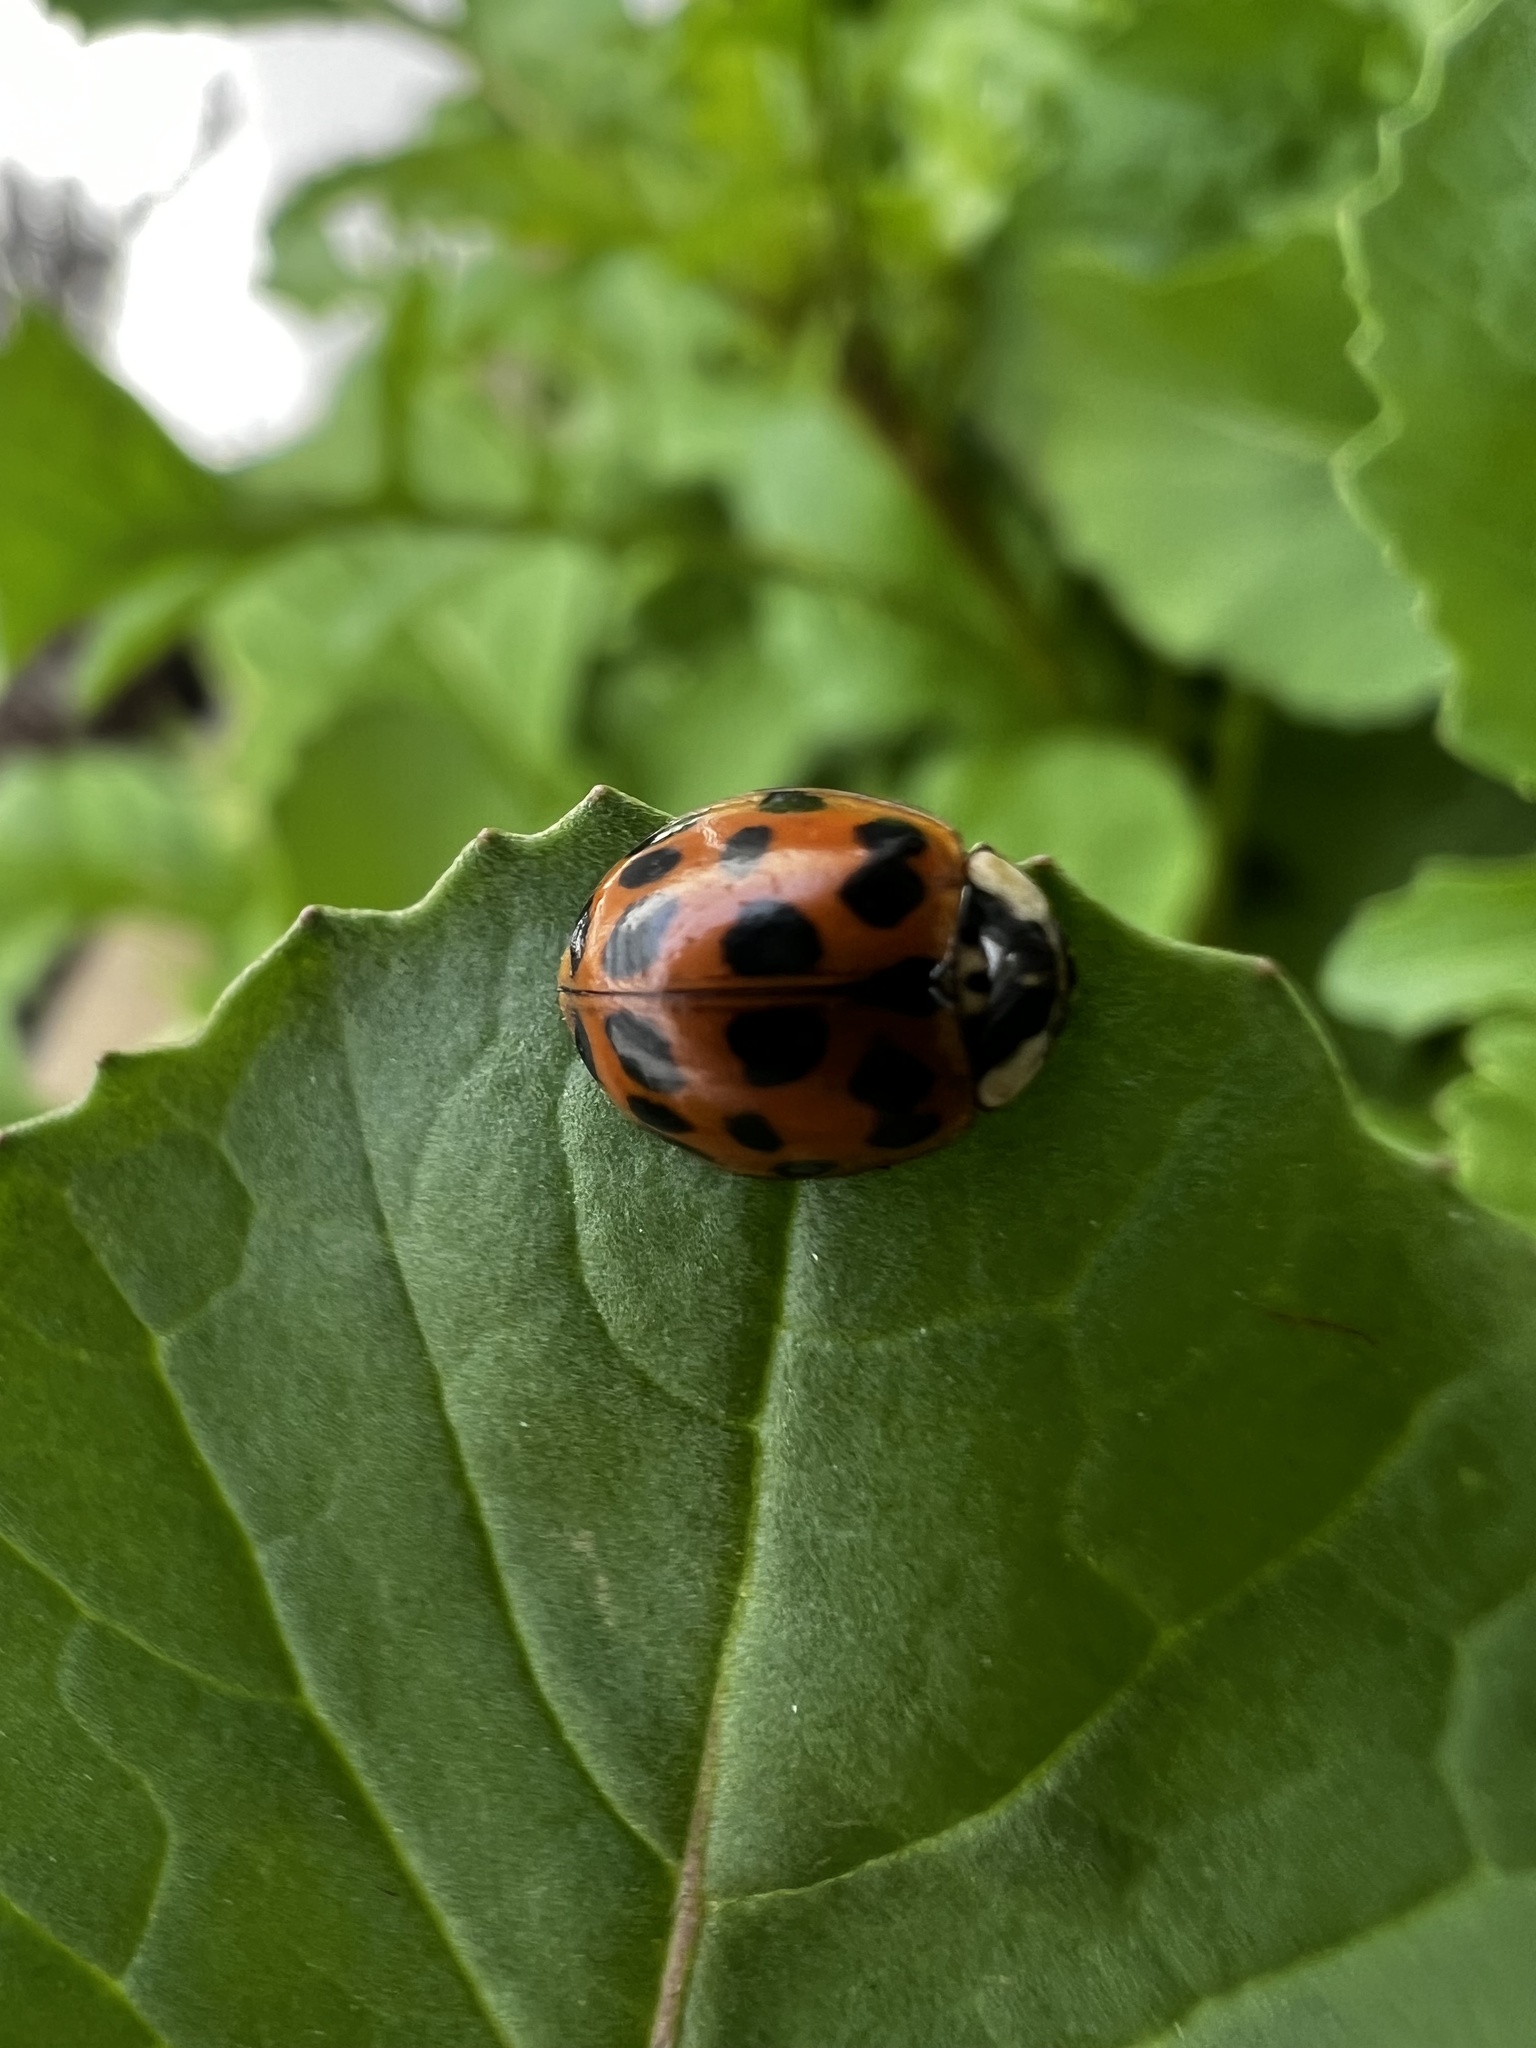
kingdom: Animalia
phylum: Arthropoda
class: Insecta
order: Coleoptera
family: Coccinellidae
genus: Harmonia
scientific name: Harmonia axyridis
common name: Harlequin ladybird
